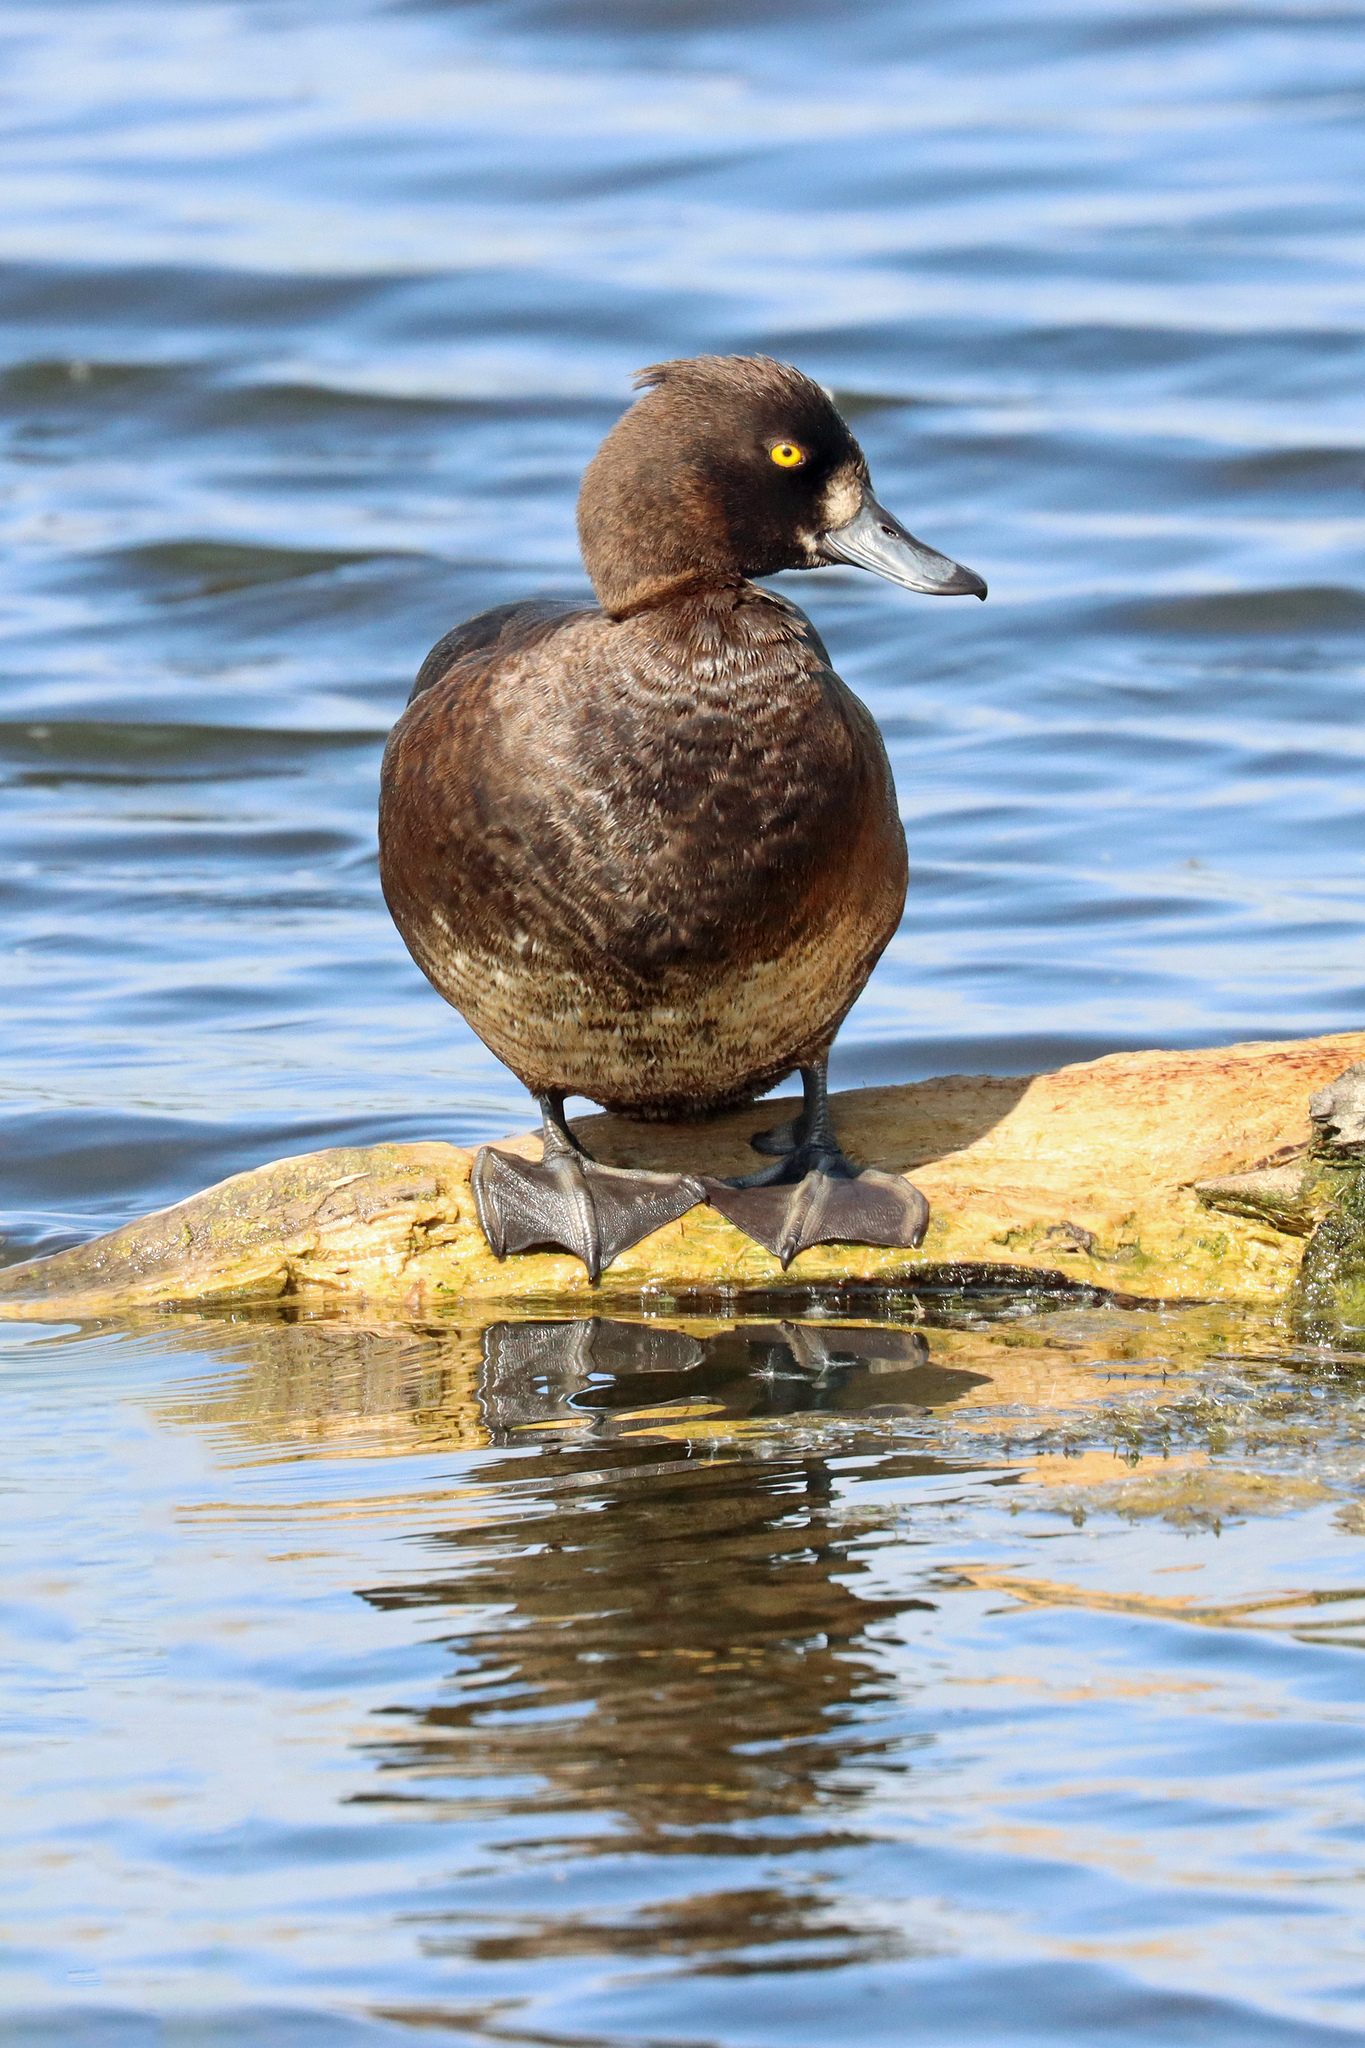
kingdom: Animalia
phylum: Chordata
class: Aves
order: Anseriformes
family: Anatidae
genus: Aythya
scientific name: Aythya fuligula
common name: Tufted duck
